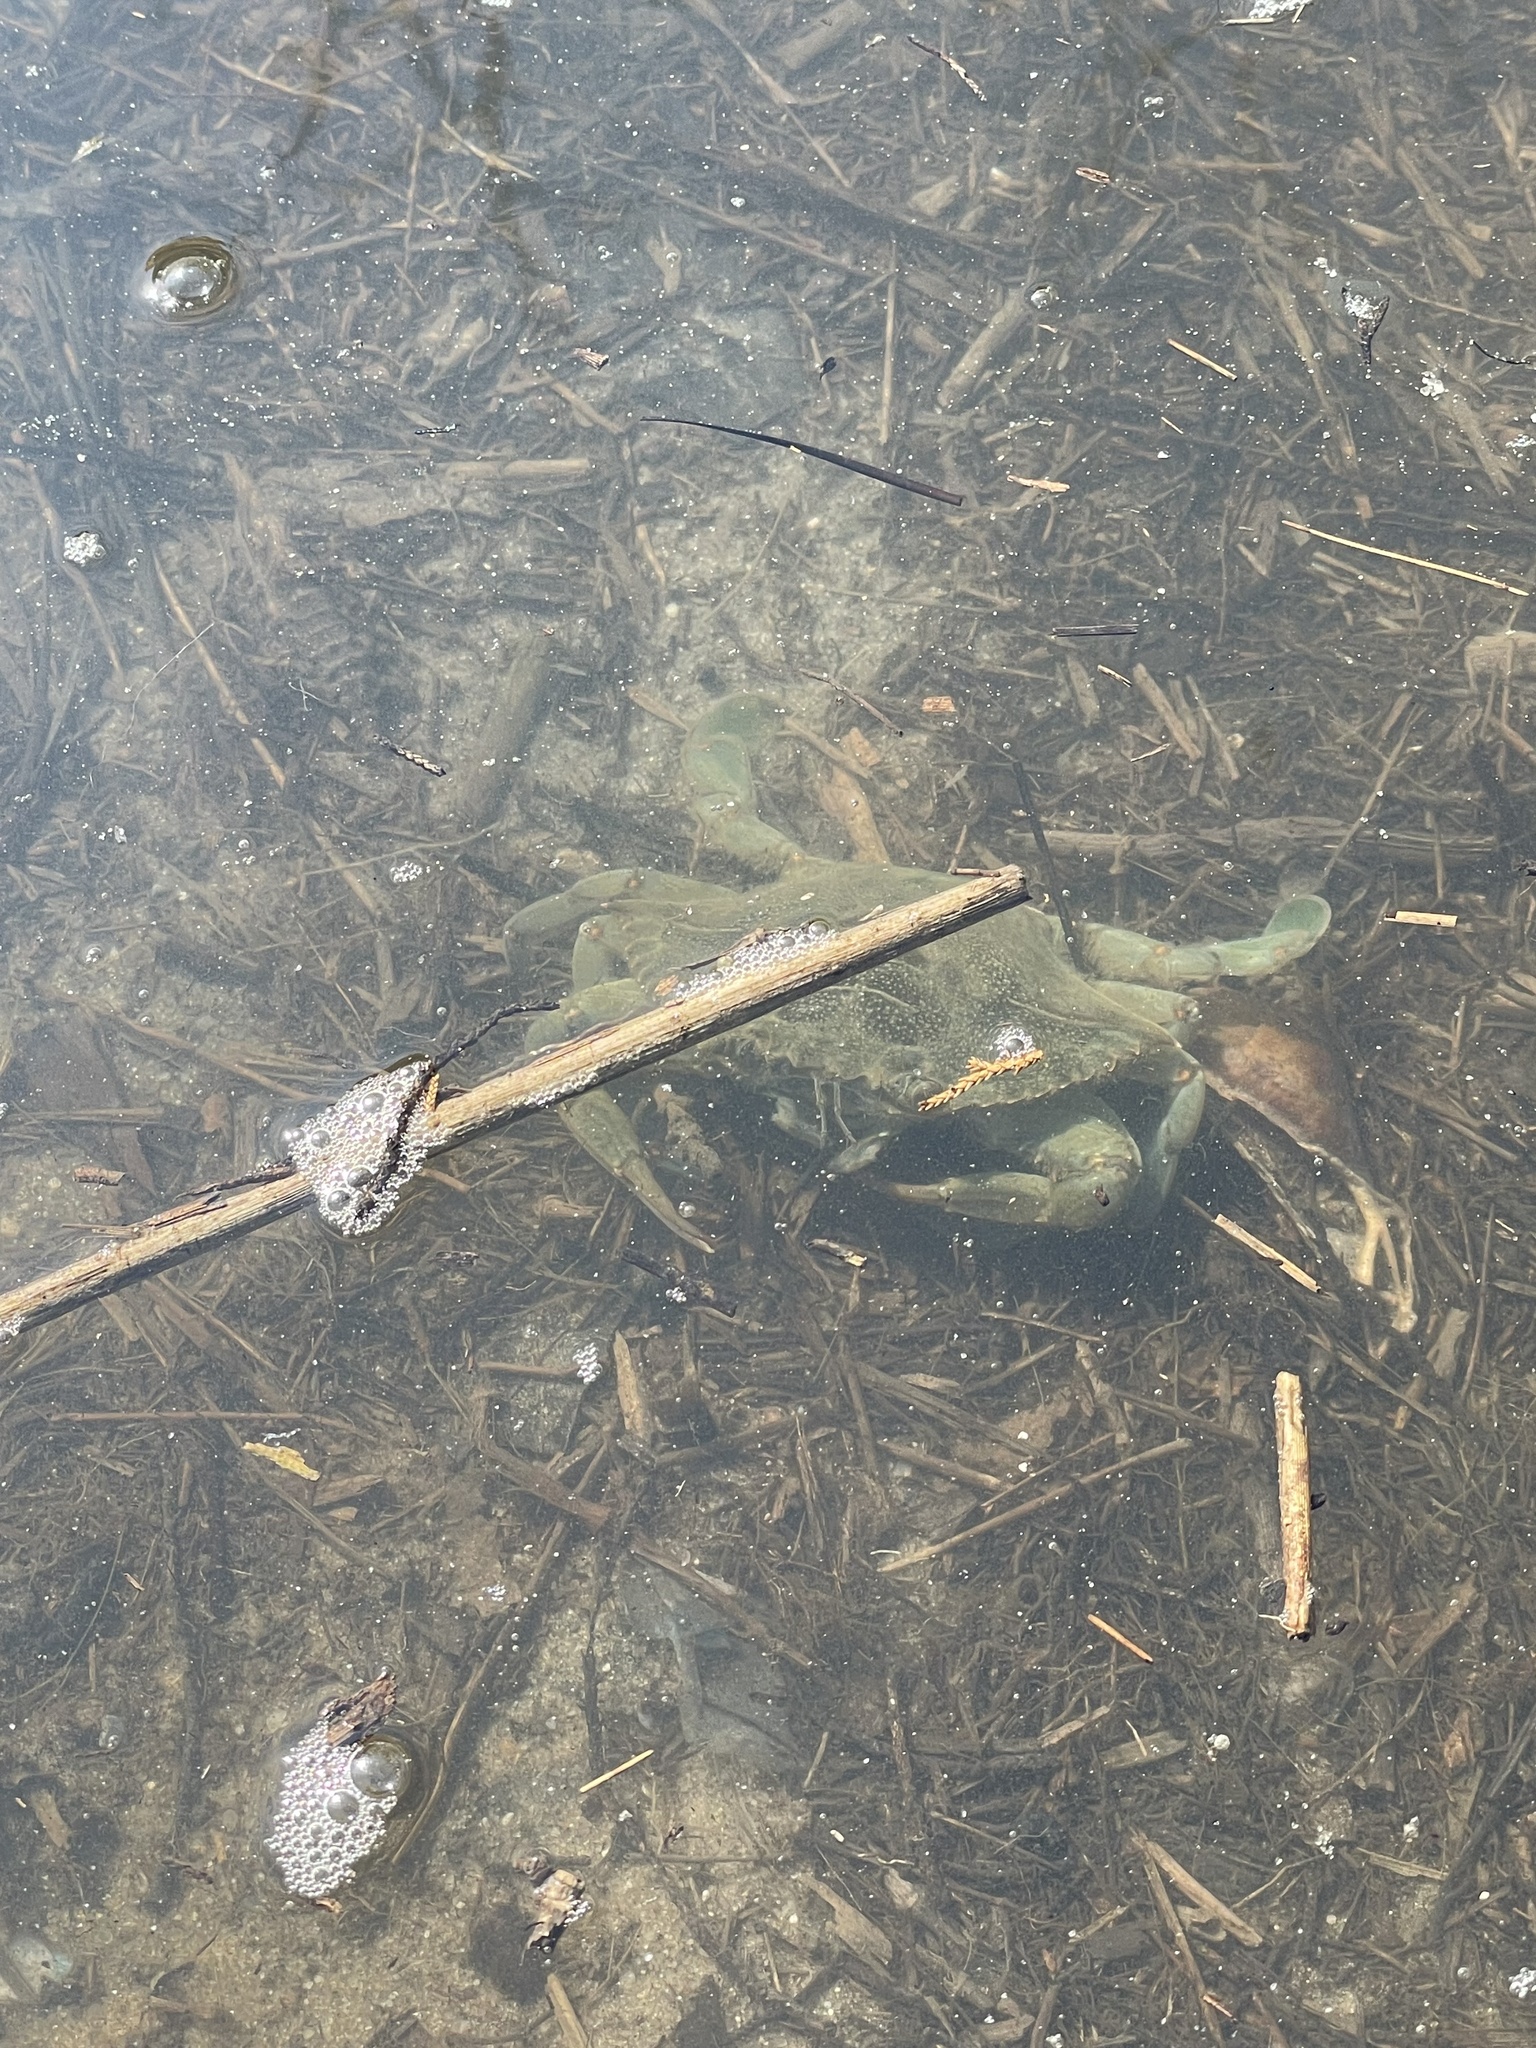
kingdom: Animalia
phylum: Arthropoda
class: Malacostraca
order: Decapoda
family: Portunidae
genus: Callinectes
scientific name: Callinectes sapidus
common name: Blue crab
